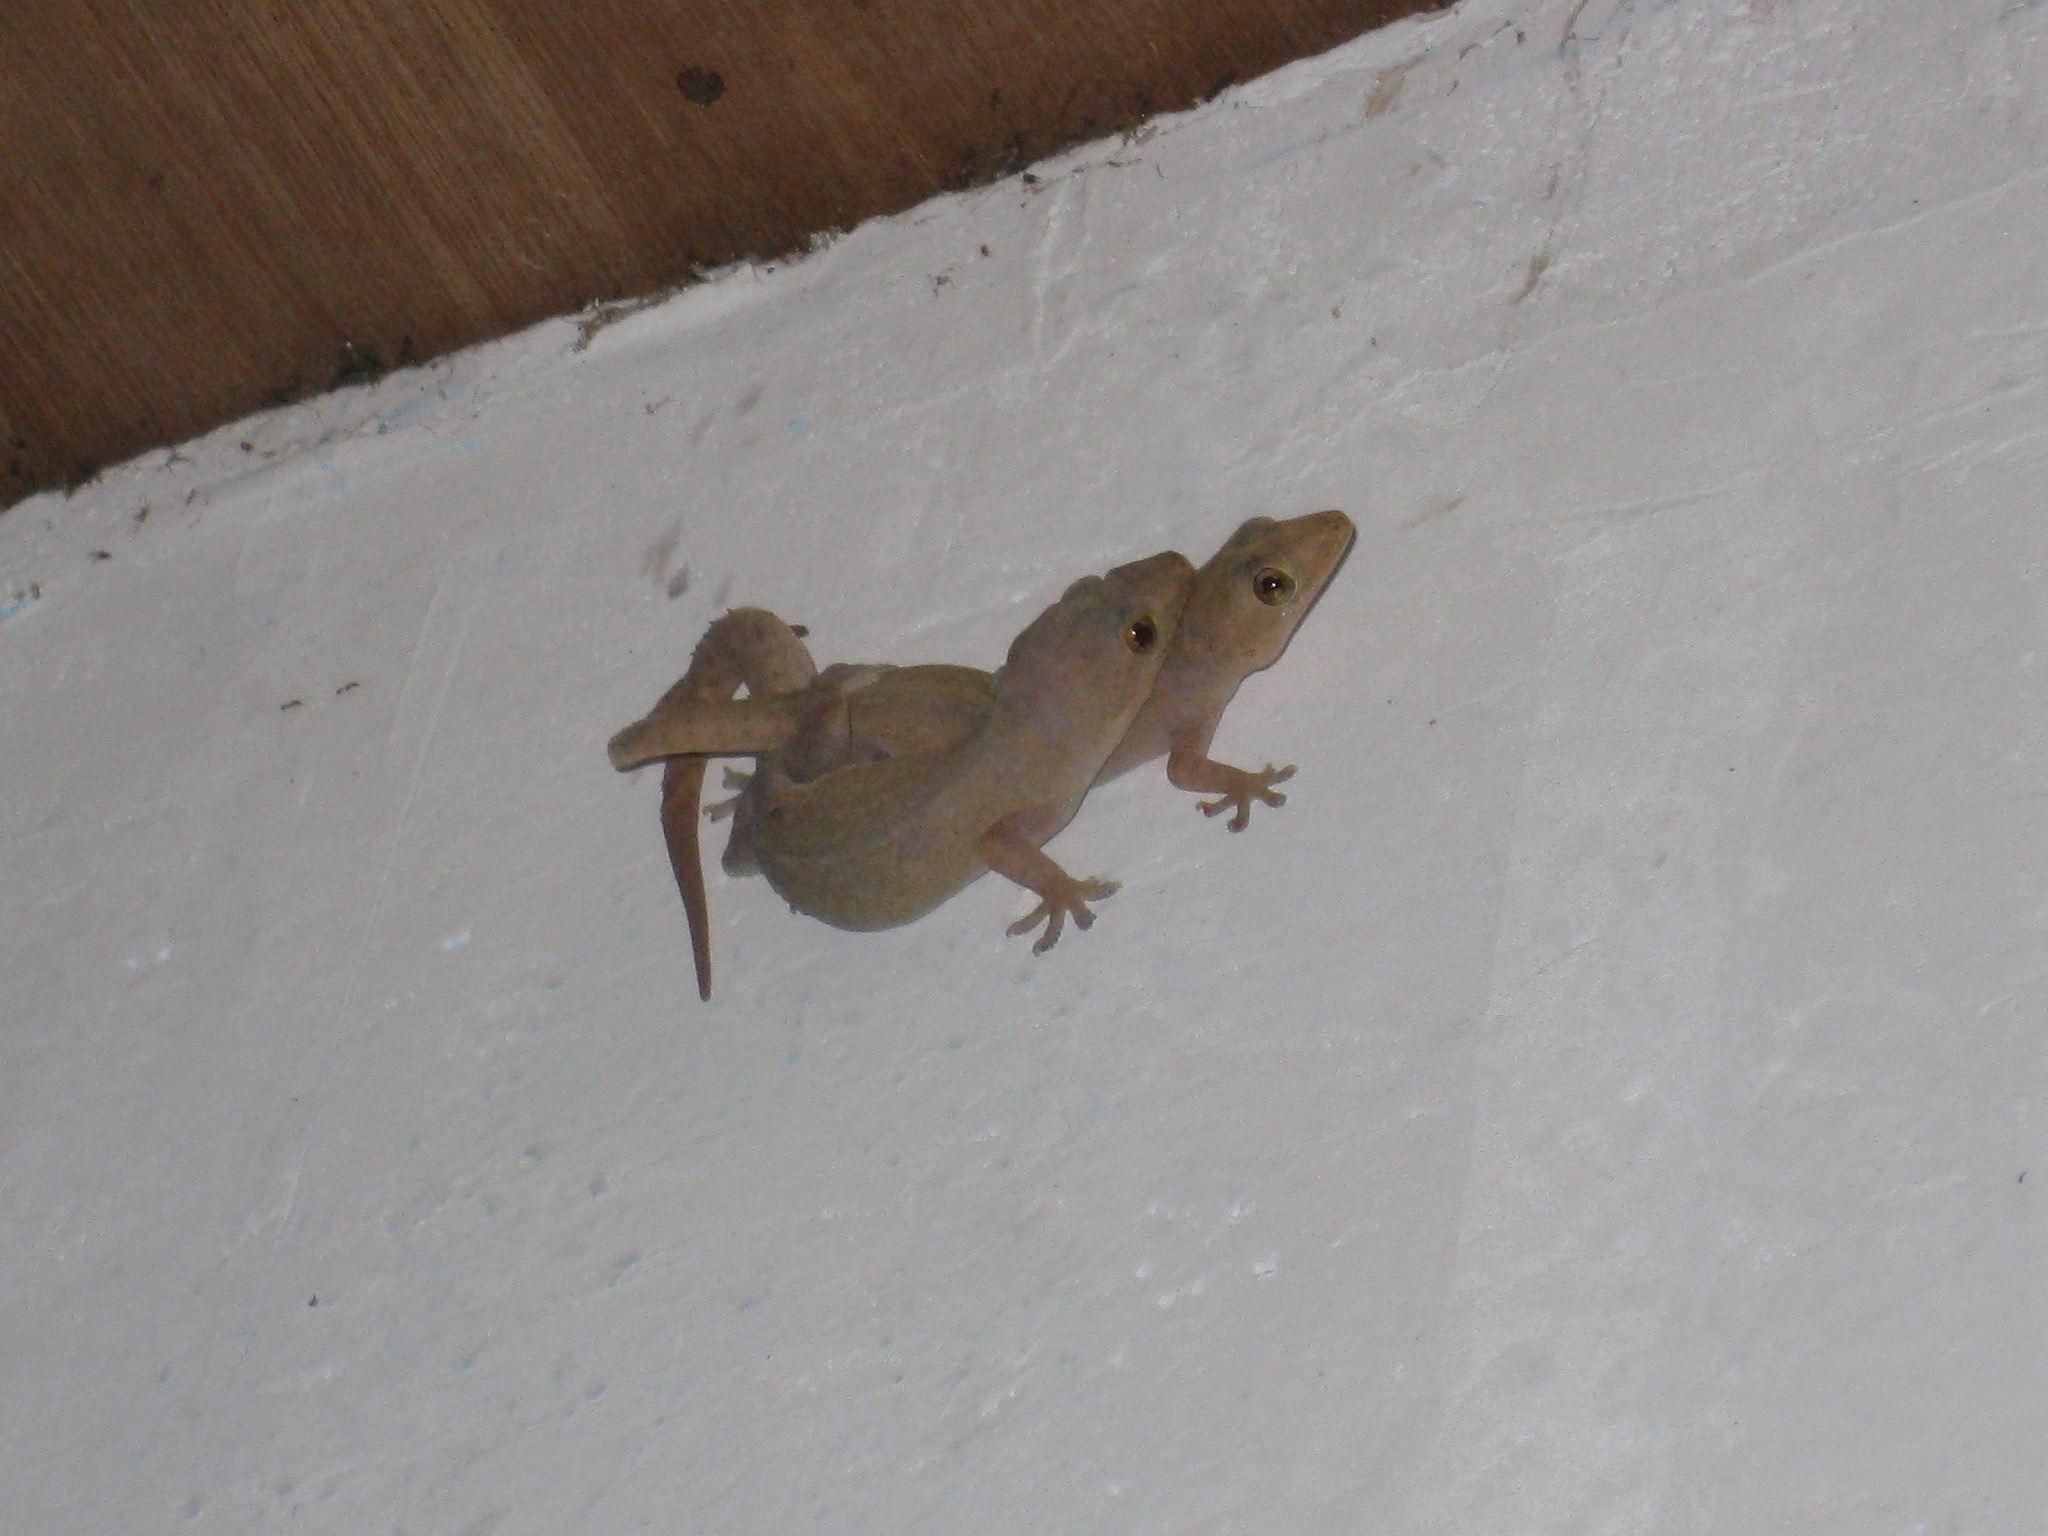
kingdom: Animalia
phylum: Chordata
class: Squamata
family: Gekkonidae
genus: Hemidactylus
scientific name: Hemidactylus frenatus
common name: Common house gecko
